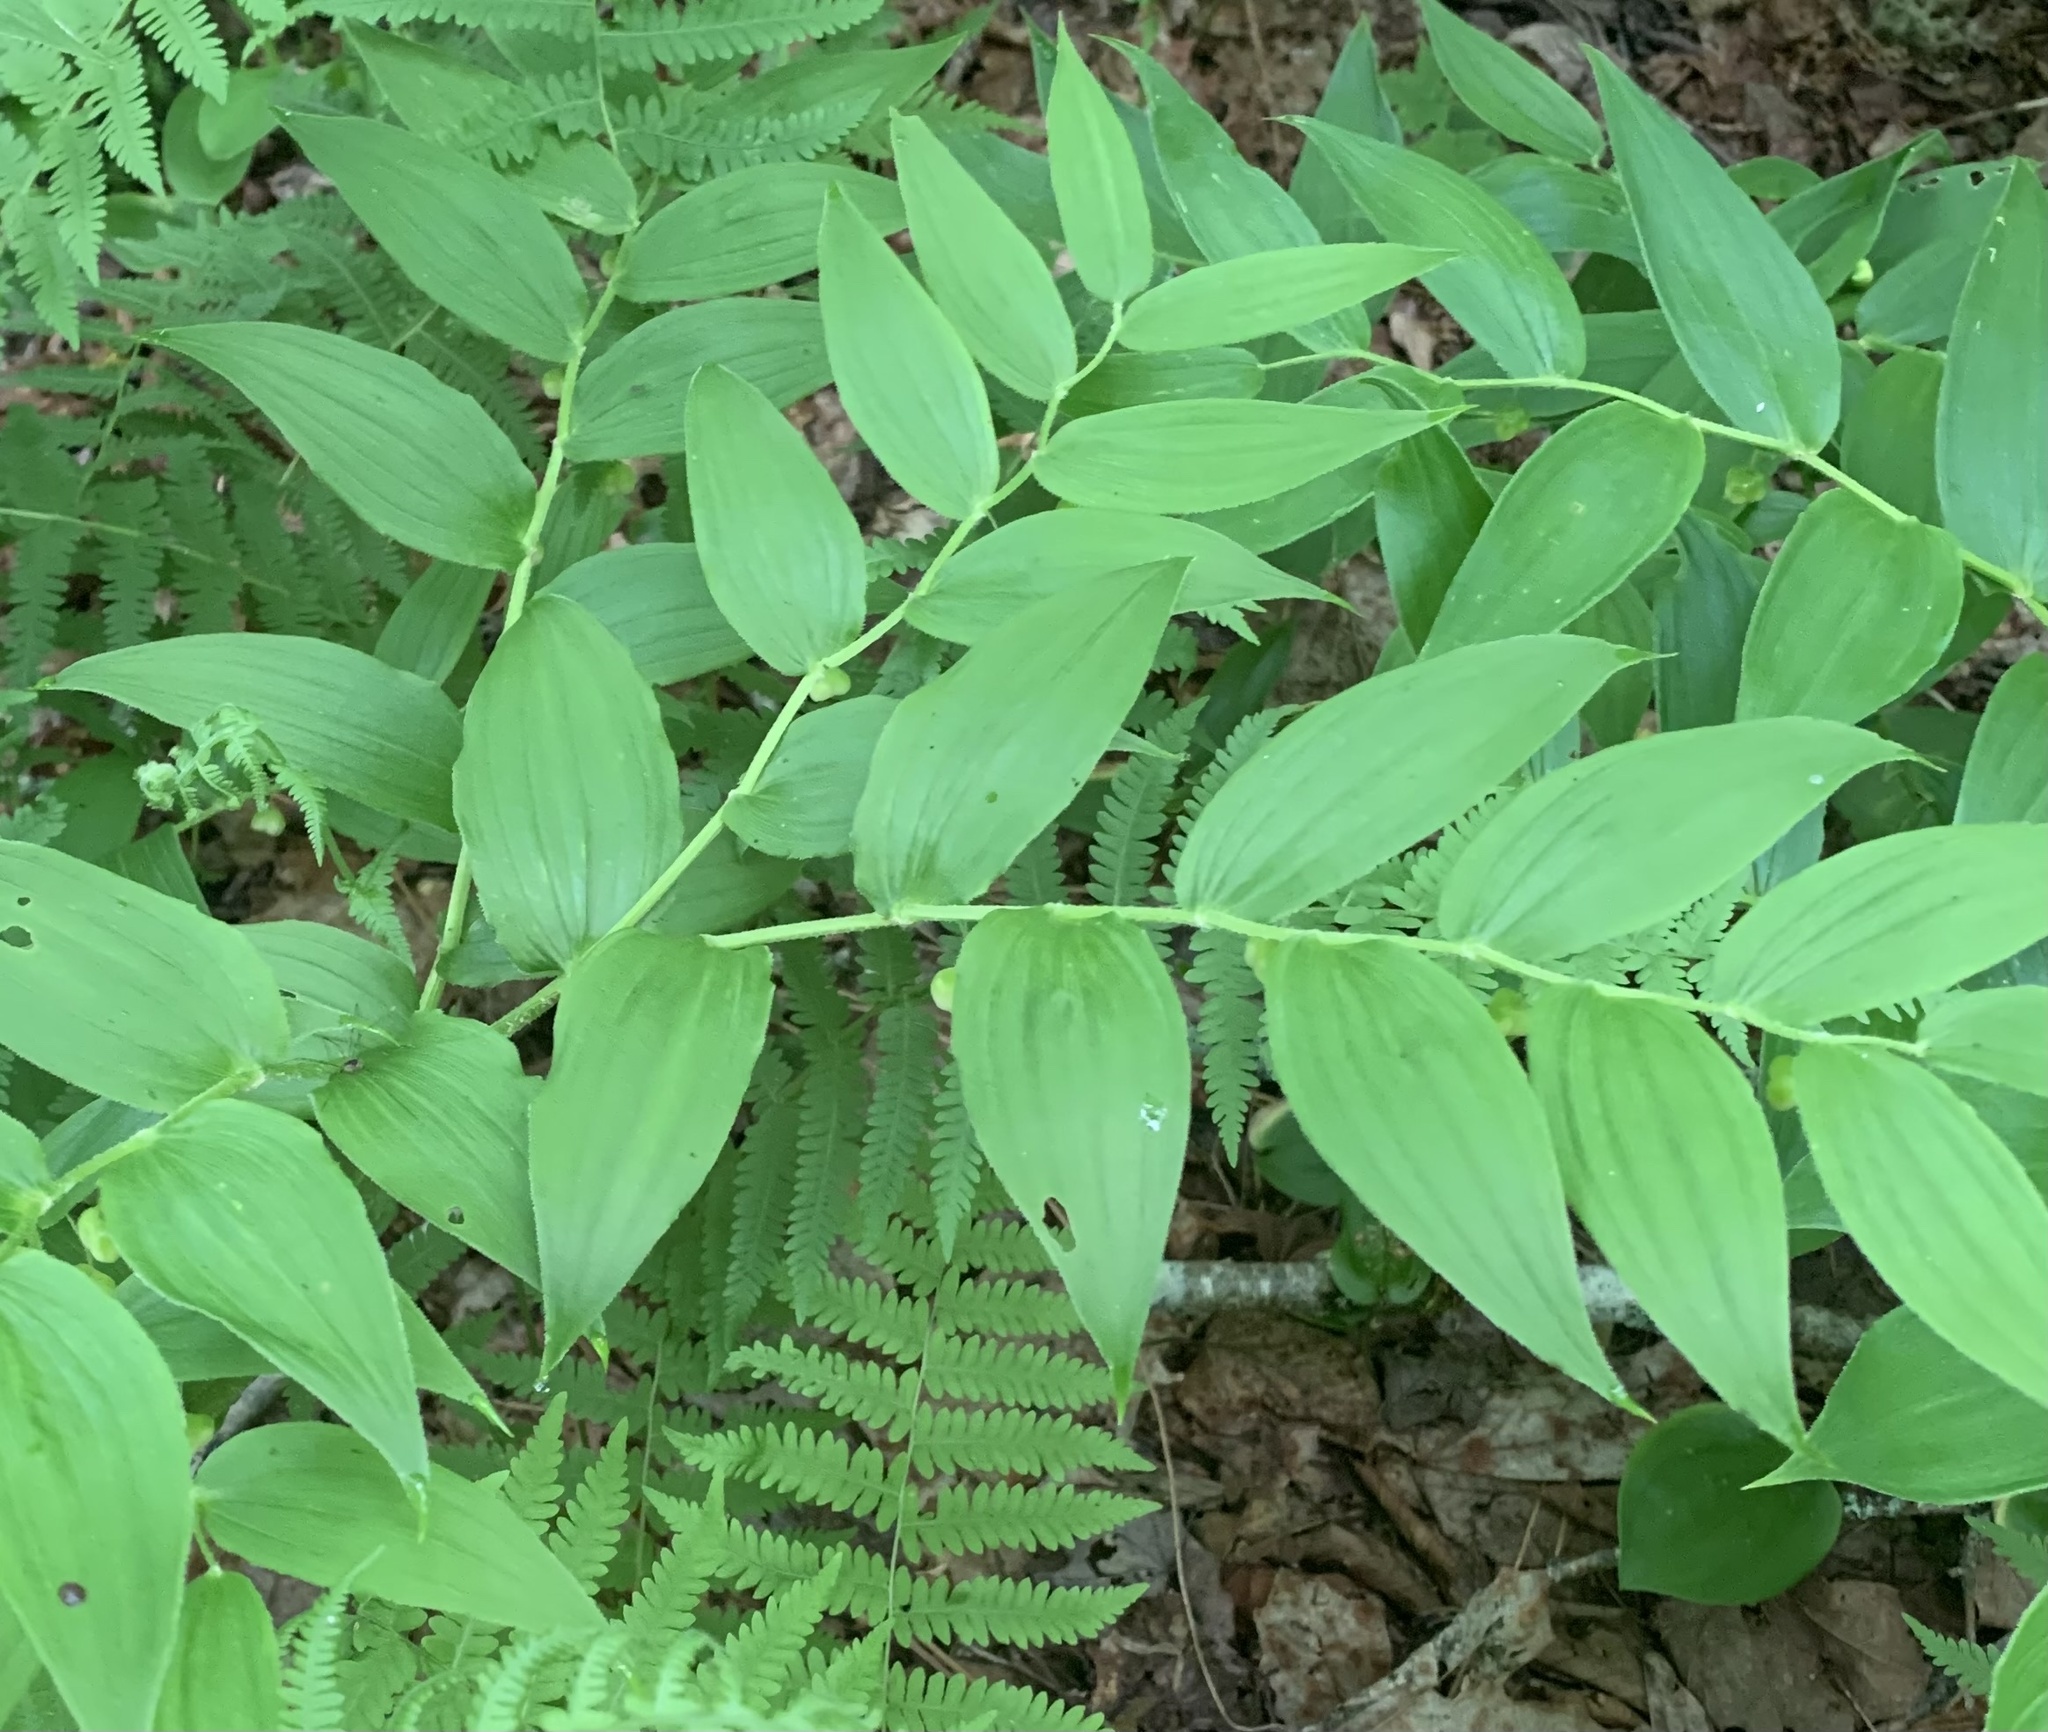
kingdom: Plantae
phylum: Tracheophyta
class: Liliopsida
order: Liliales
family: Liliaceae
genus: Streptopus
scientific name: Streptopus lanceolatus
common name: Rose mandarin
